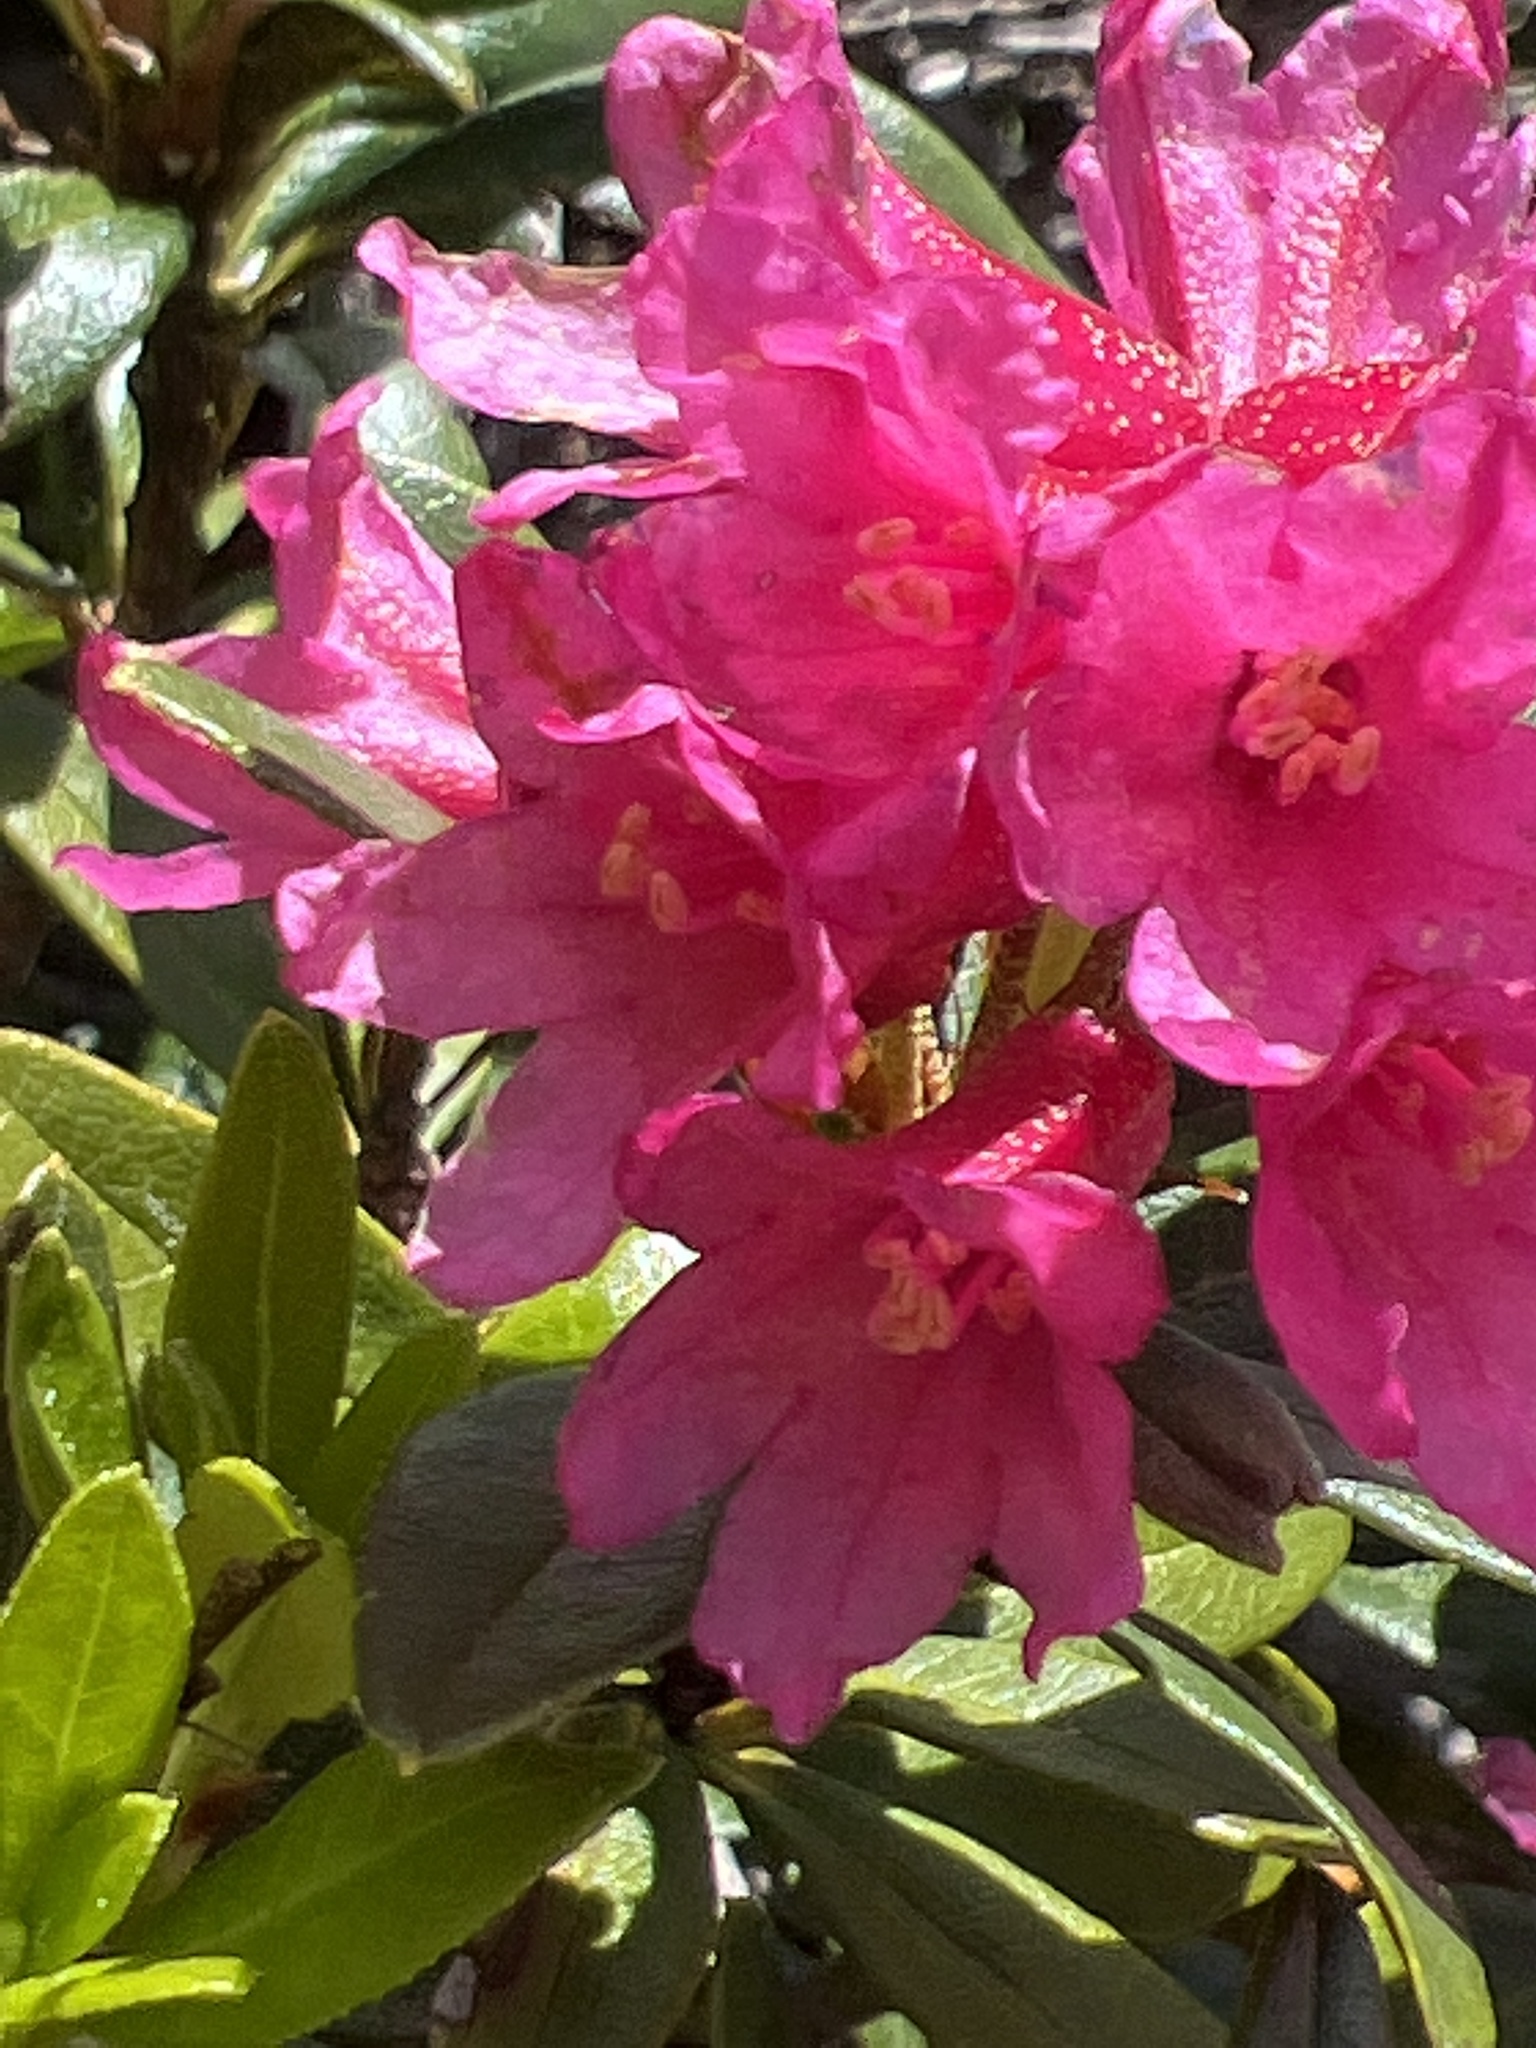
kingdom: Plantae
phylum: Tracheophyta
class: Magnoliopsida
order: Ericales
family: Ericaceae
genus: Rhododendron
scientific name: Rhododendron ferrugineum
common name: Alpenrose
